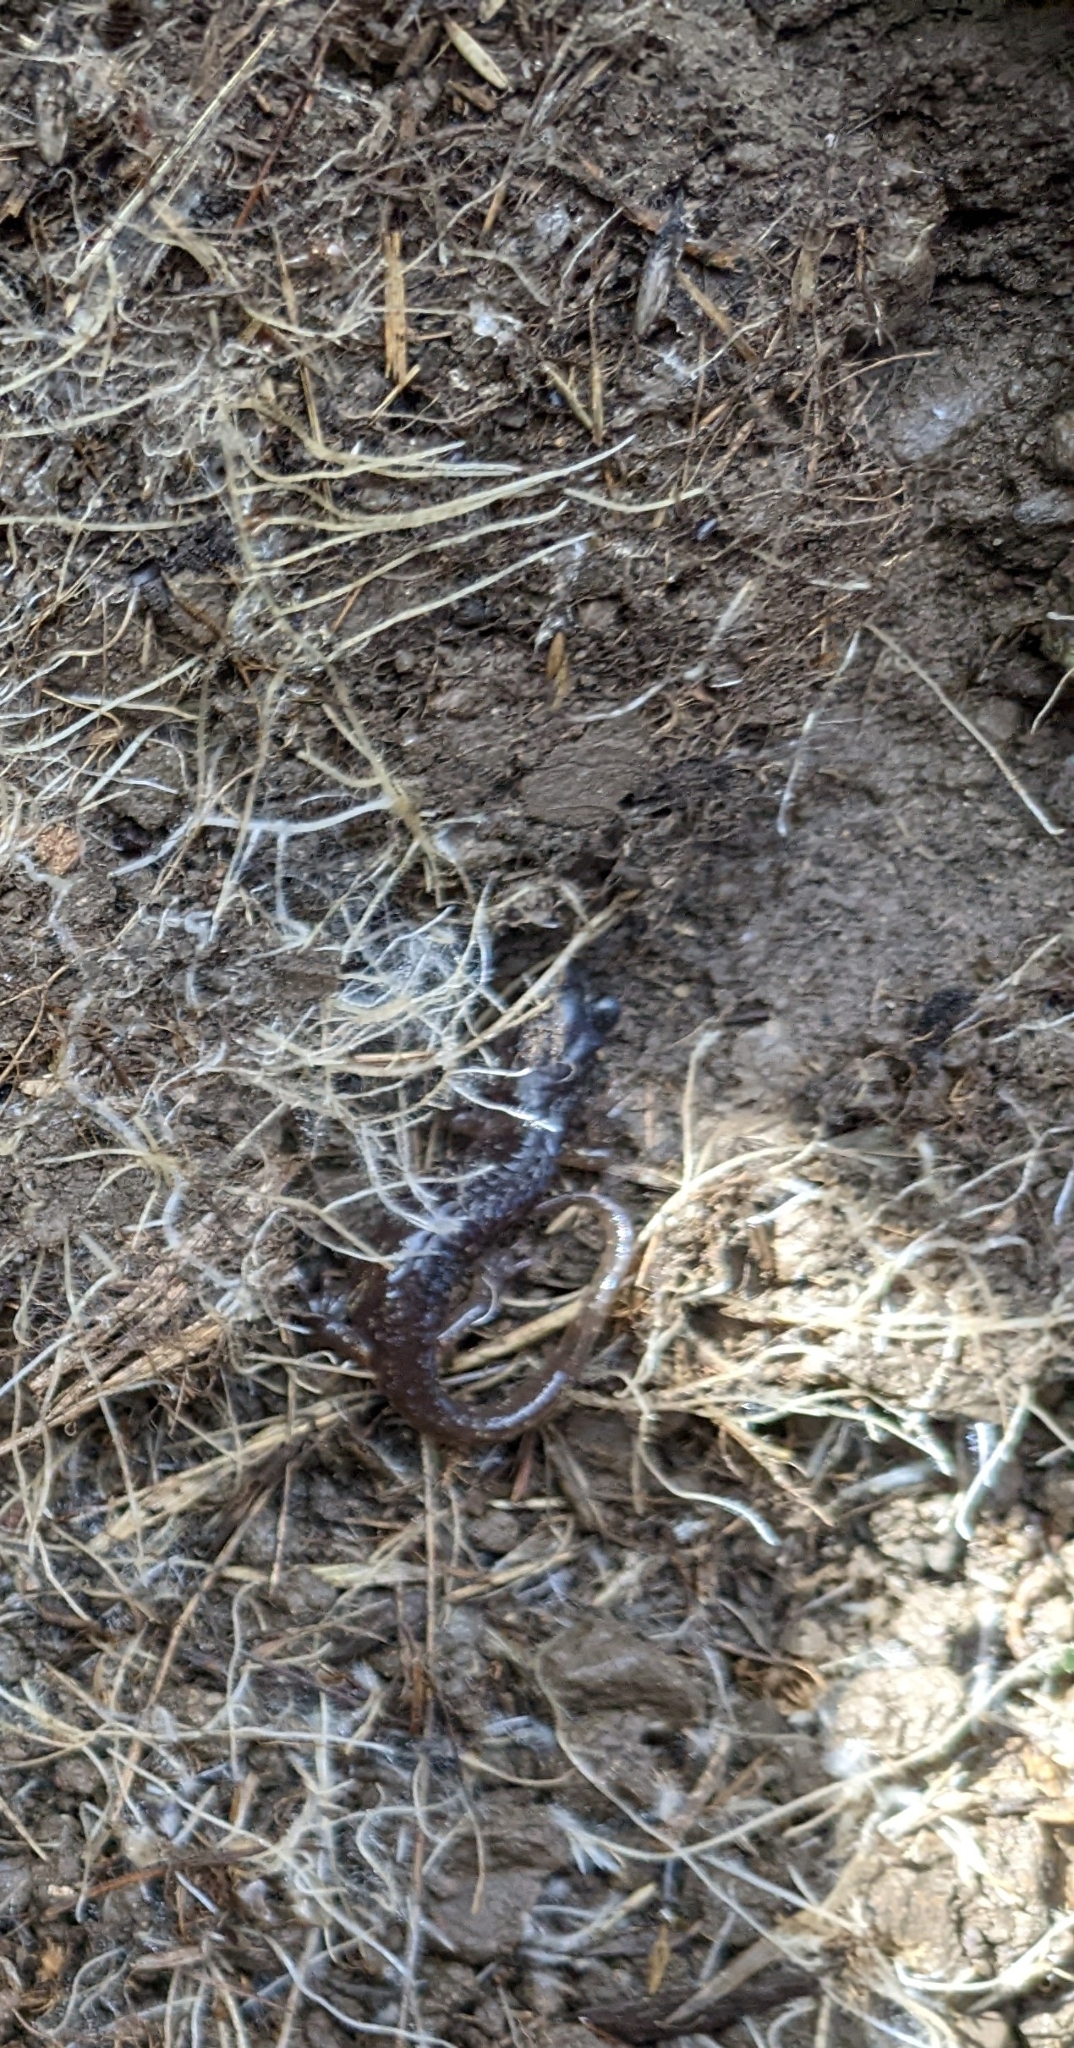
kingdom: Animalia
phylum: Chordata
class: Amphibia
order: Caudata
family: Plethodontidae
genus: Aneides
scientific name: Aneides lugubris
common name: Arboreal salamander
